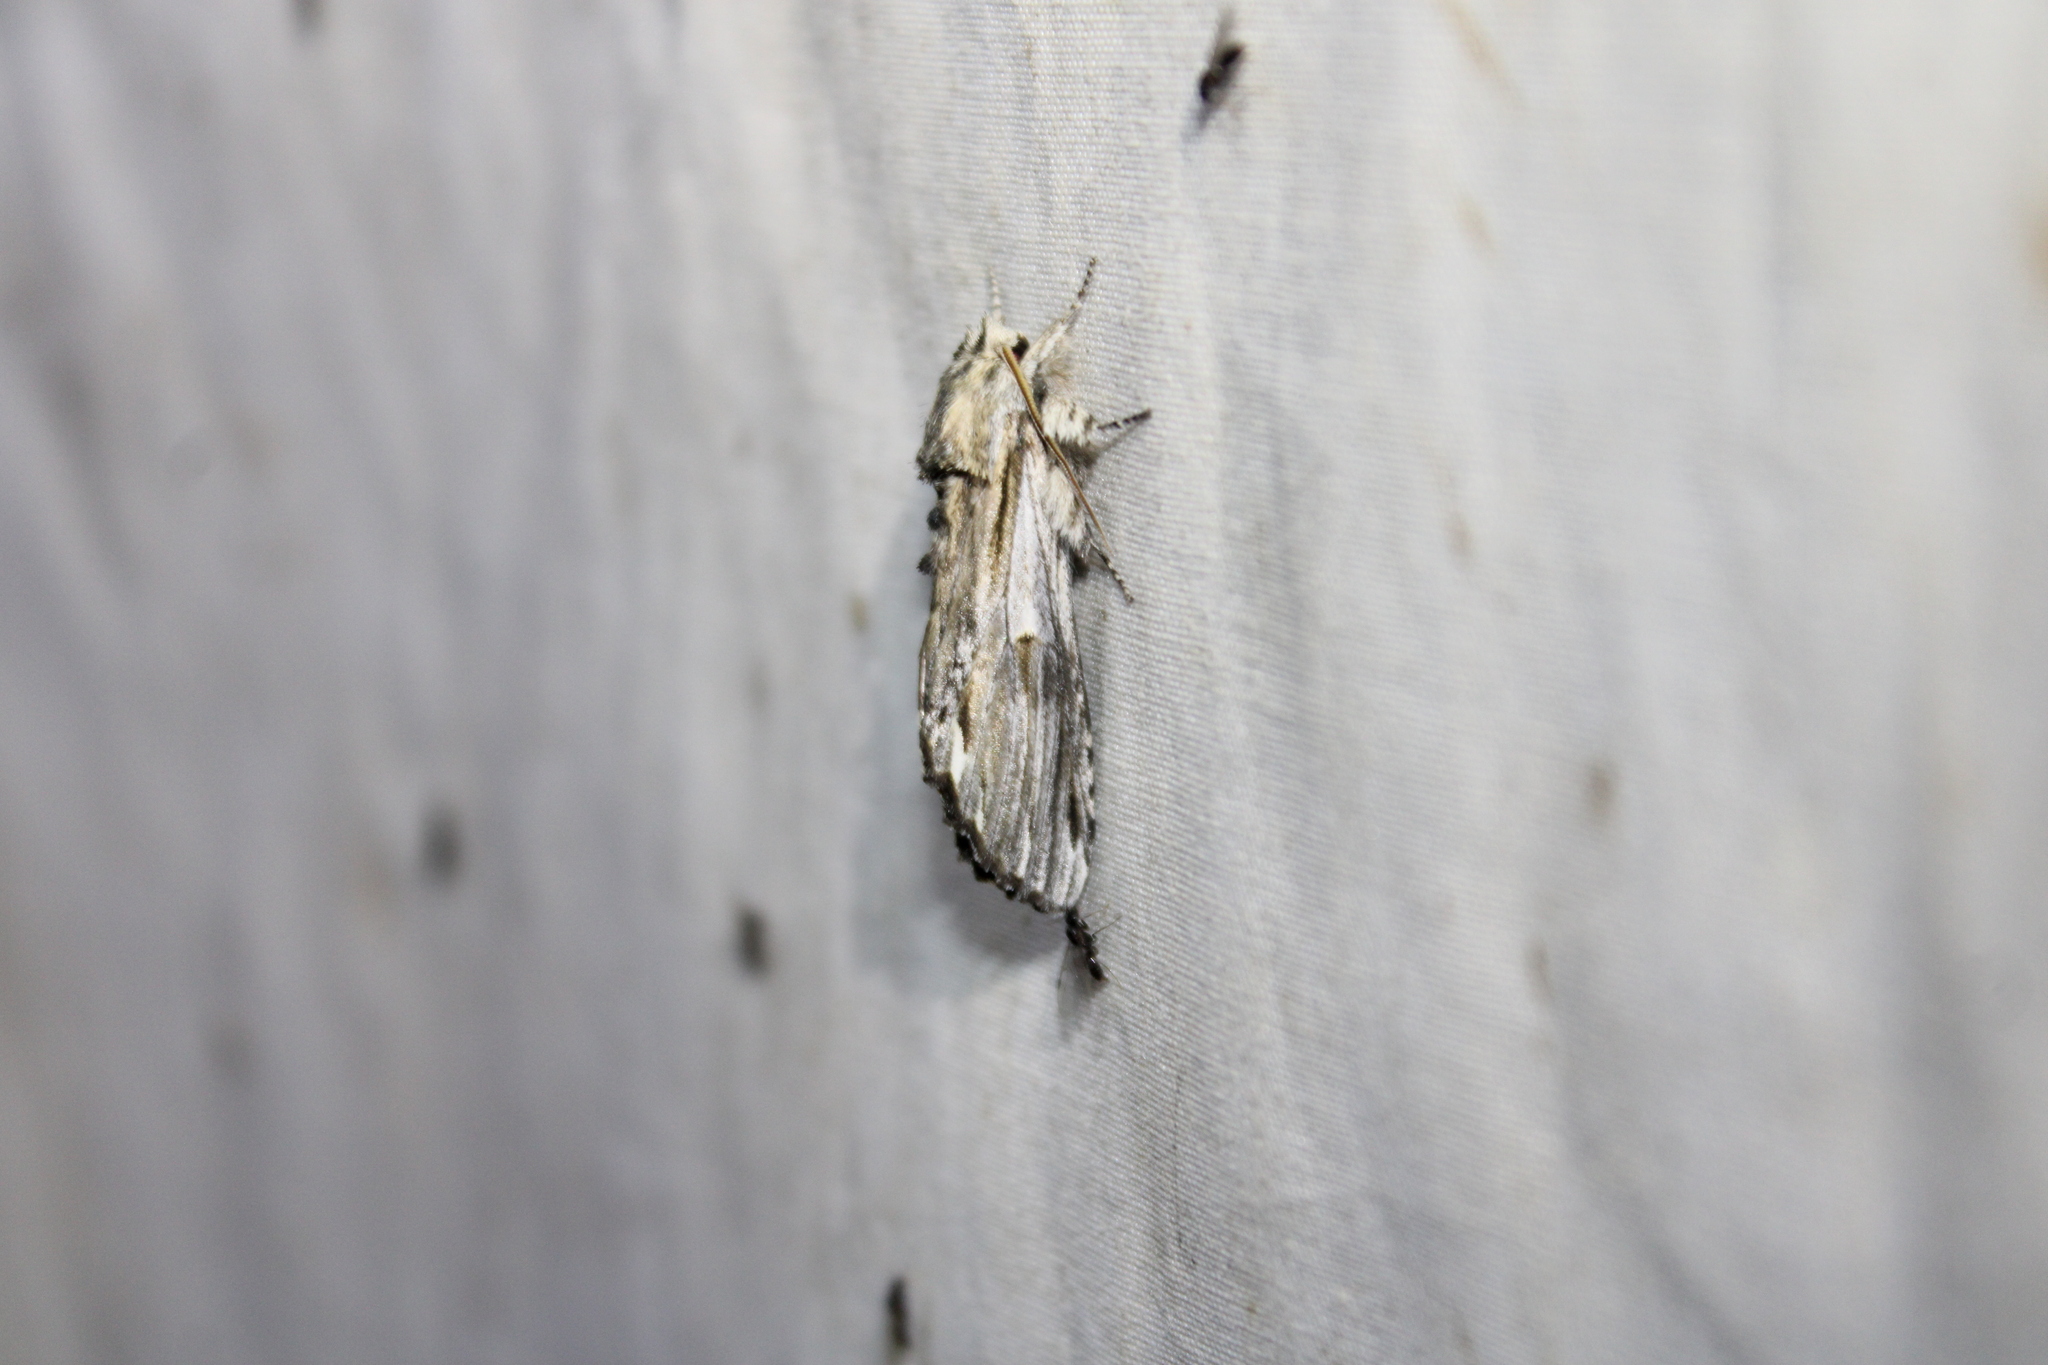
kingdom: Animalia
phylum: Arthropoda
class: Insecta
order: Lepidoptera
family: Notodontidae
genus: Oligocentria
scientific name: Oligocentria Ianassa lignicolor
